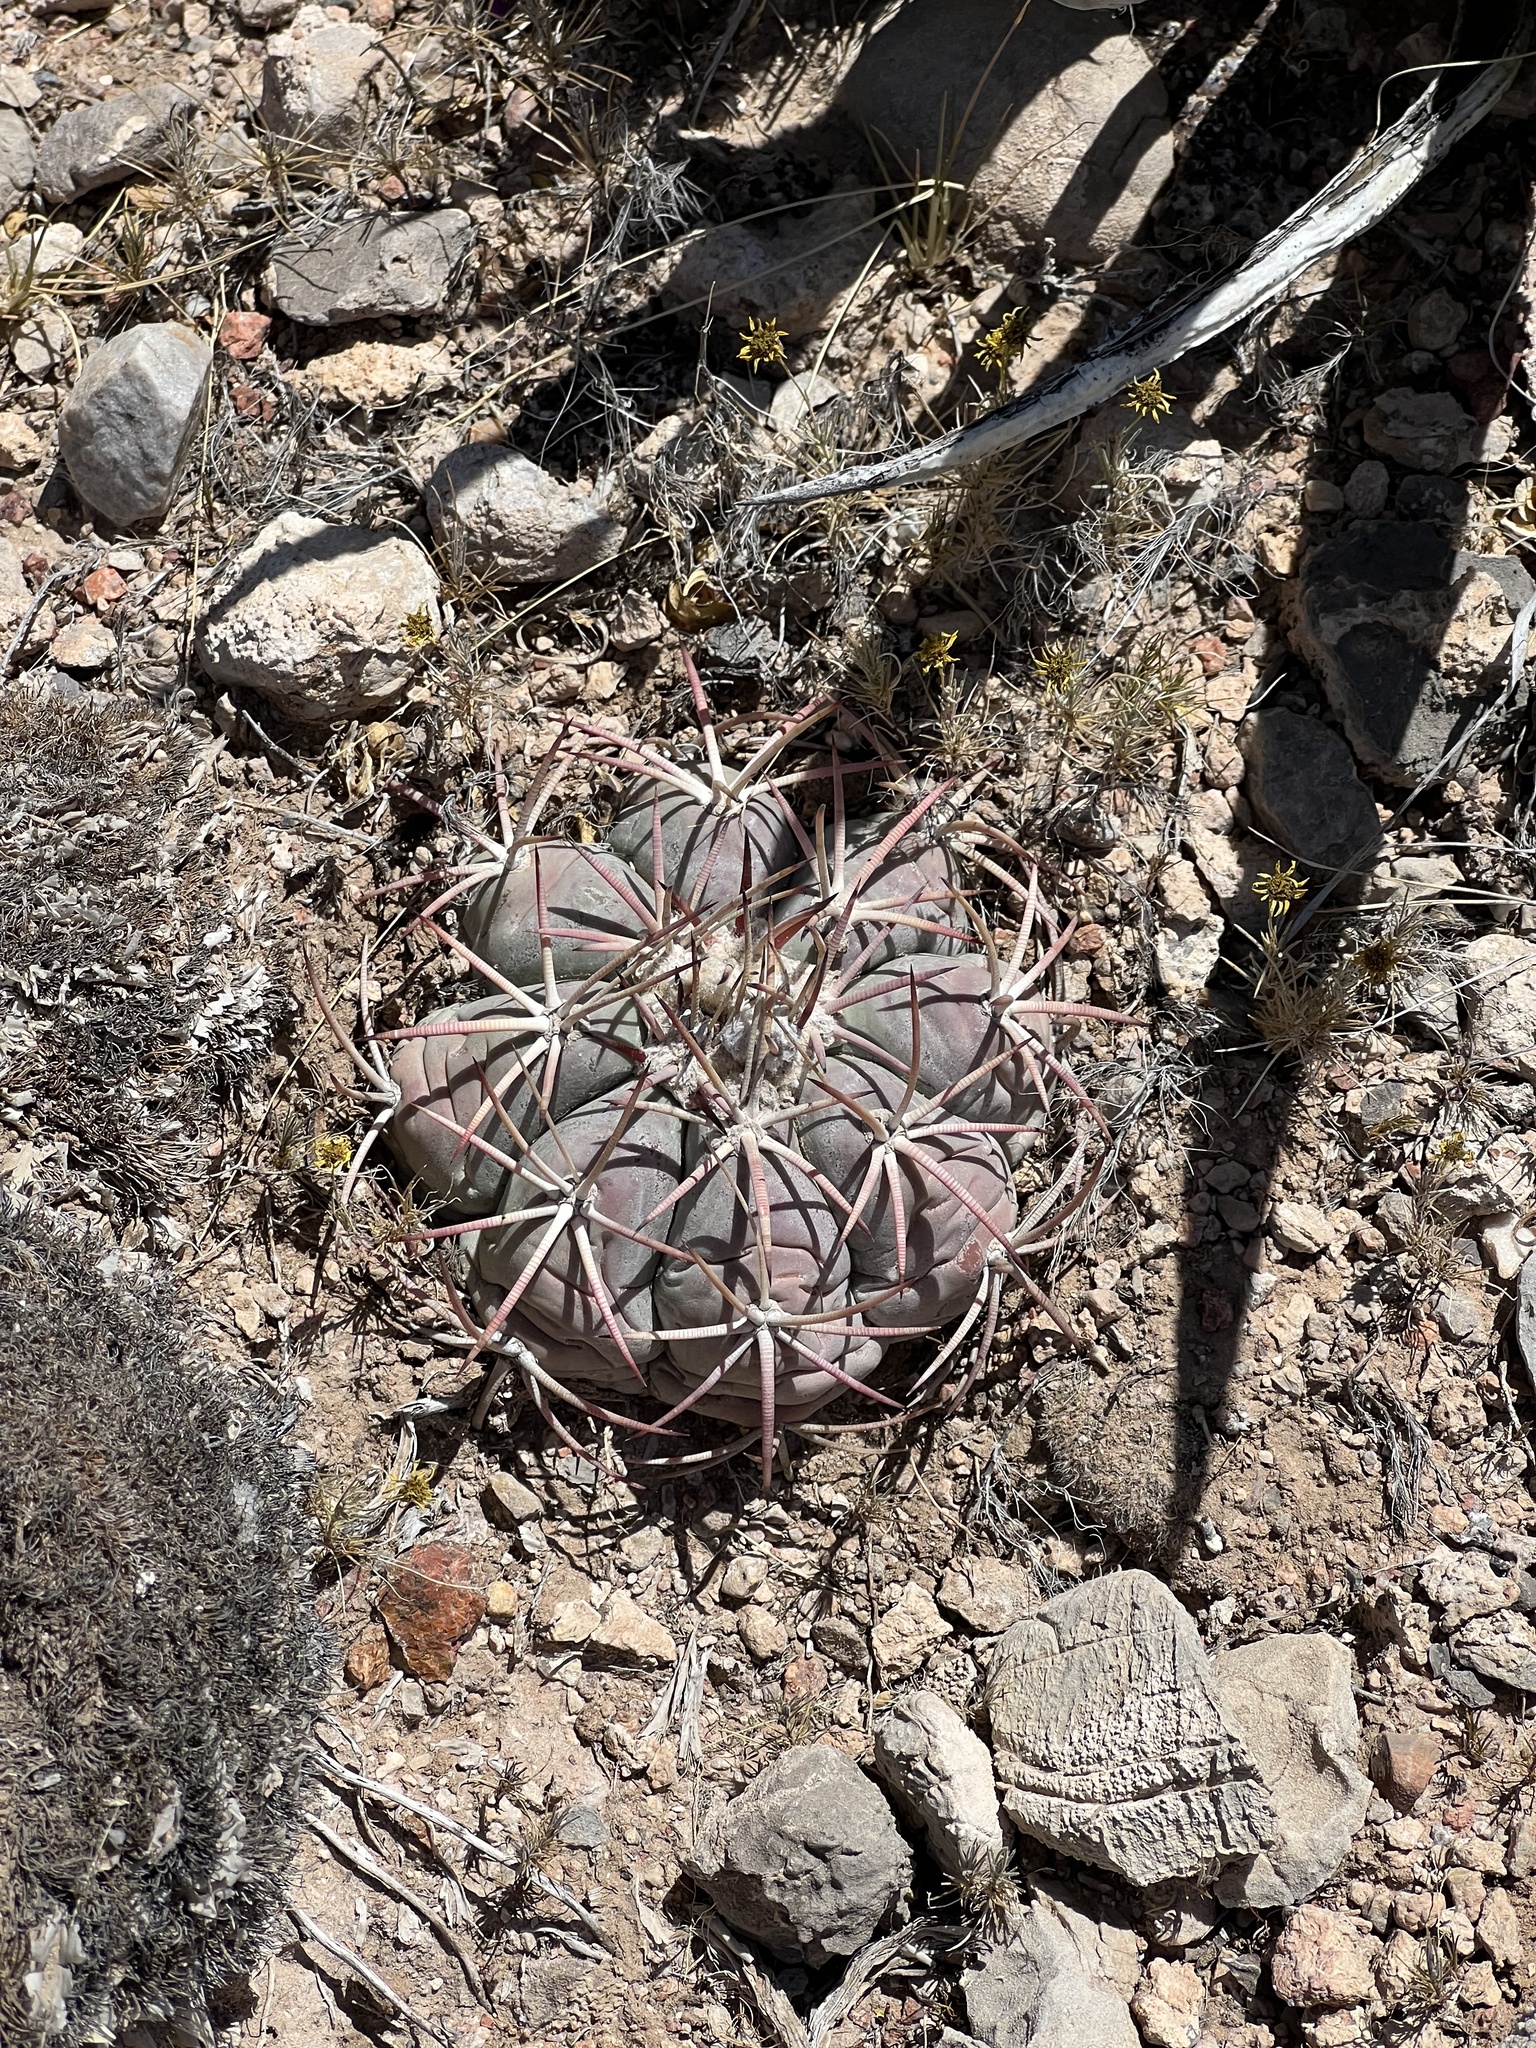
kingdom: Plantae
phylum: Tracheophyta
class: Magnoliopsida
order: Caryophyllales
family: Cactaceae
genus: Echinocactus
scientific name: Echinocactus horizonthalonius
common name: Devilshead
